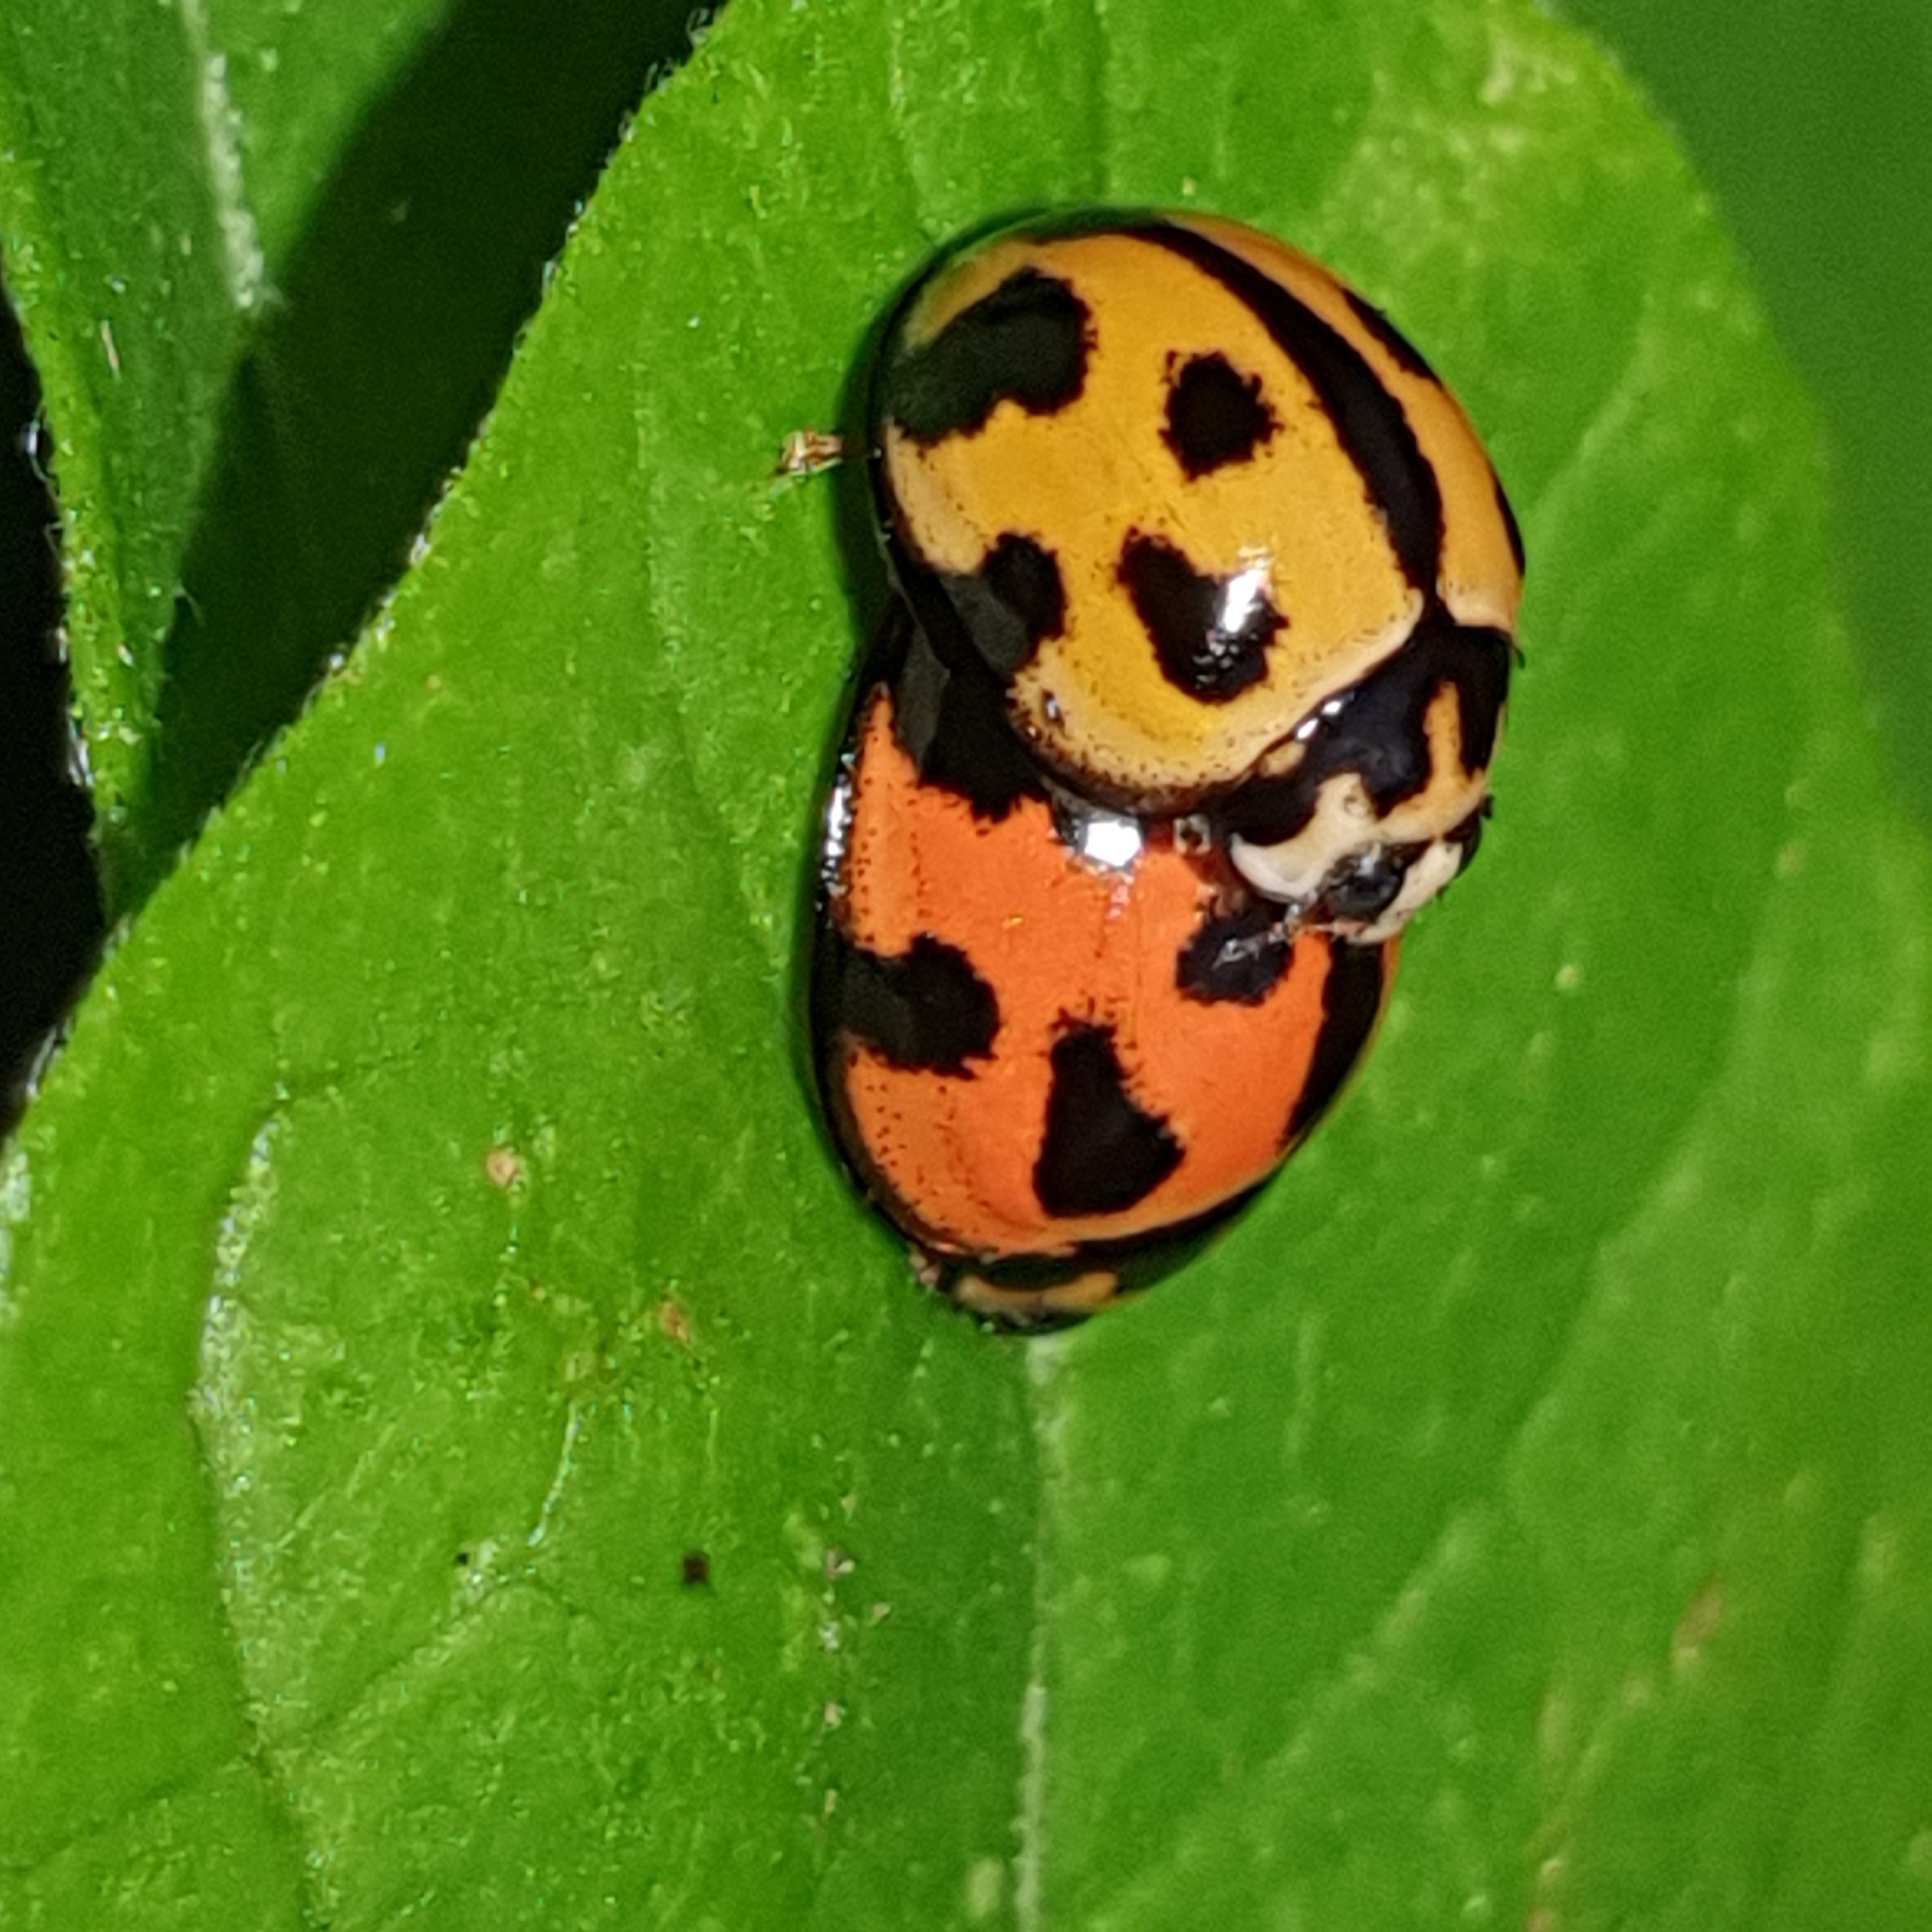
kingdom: Animalia
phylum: Arthropoda
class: Insecta
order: Coleoptera
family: Coccinellidae
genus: Coelophora
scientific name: Coelophora inaequalis
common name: Common australian lady beetle
